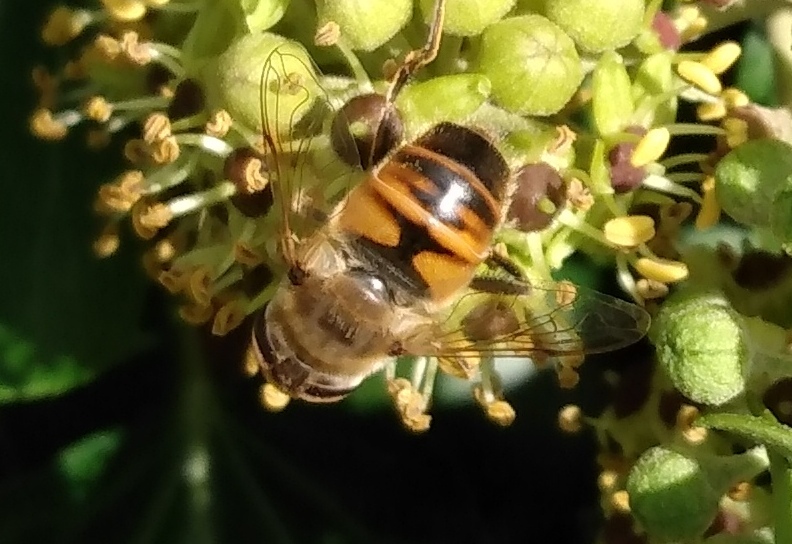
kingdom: Animalia
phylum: Arthropoda
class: Insecta
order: Diptera
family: Syrphidae
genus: Eristalis
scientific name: Eristalis tenax
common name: Drone fly
